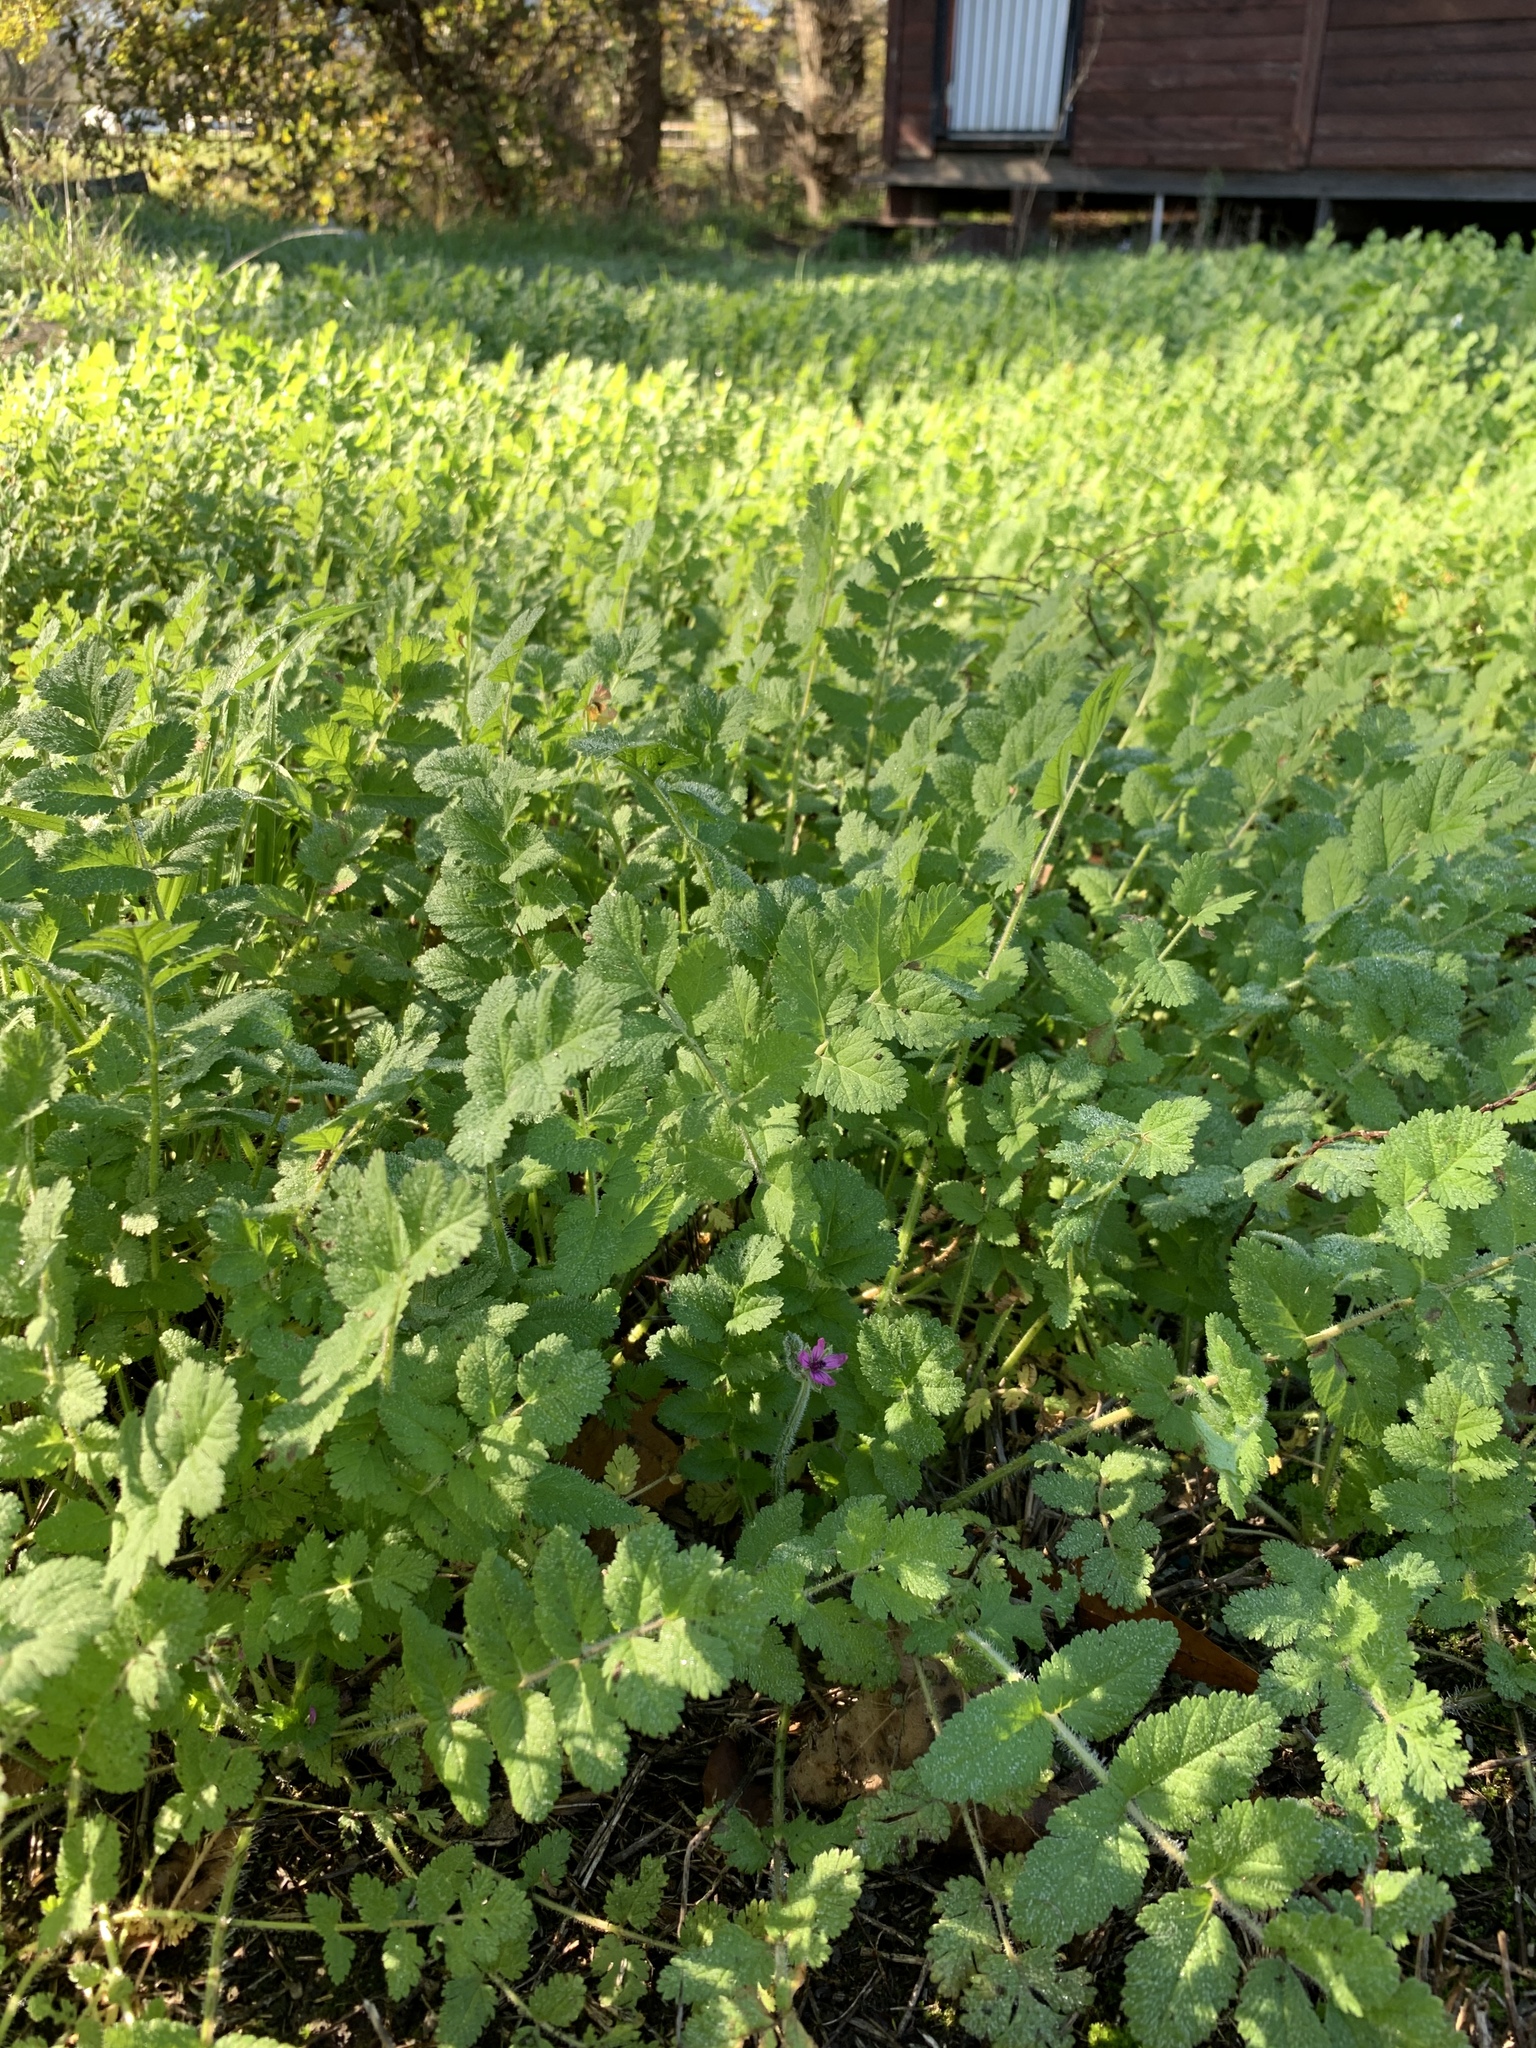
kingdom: Plantae
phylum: Tracheophyta
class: Magnoliopsida
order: Geraniales
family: Geraniaceae
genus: Erodium
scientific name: Erodium moschatum
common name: Musk stork's-bill
